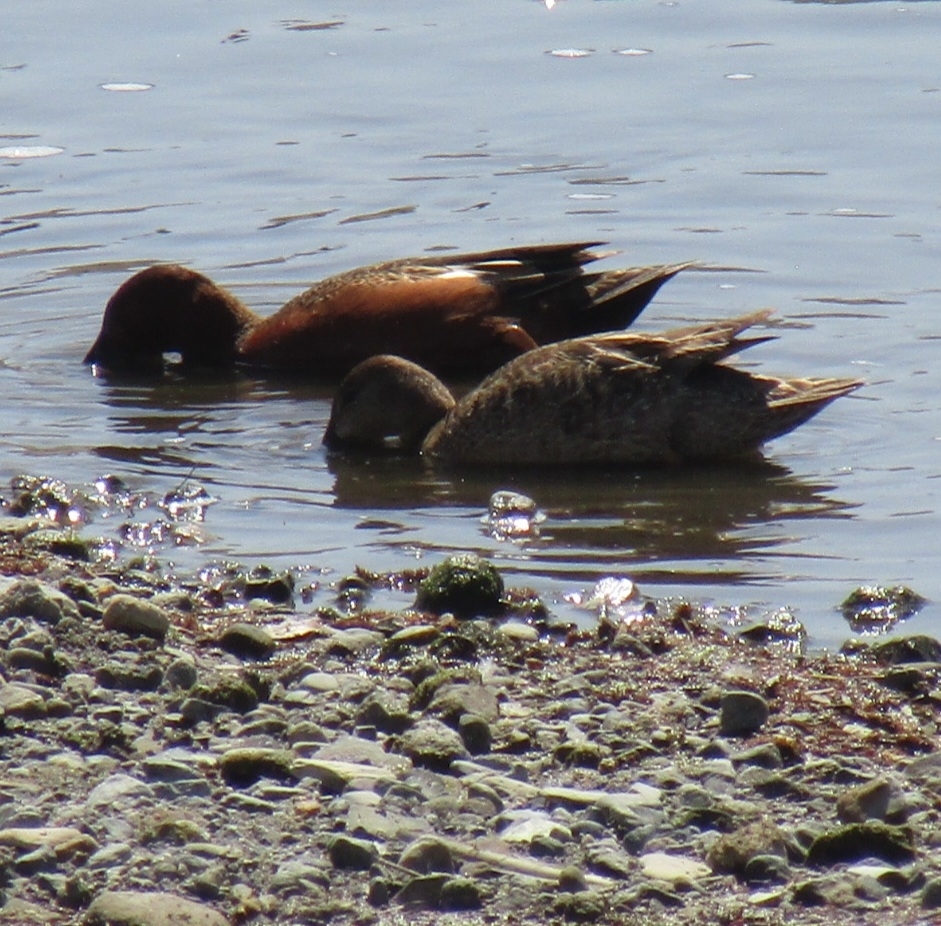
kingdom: Animalia
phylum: Chordata
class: Aves
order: Anseriformes
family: Anatidae
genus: Spatula
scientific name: Spatula cyanoptera
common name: Cinnamon teal
